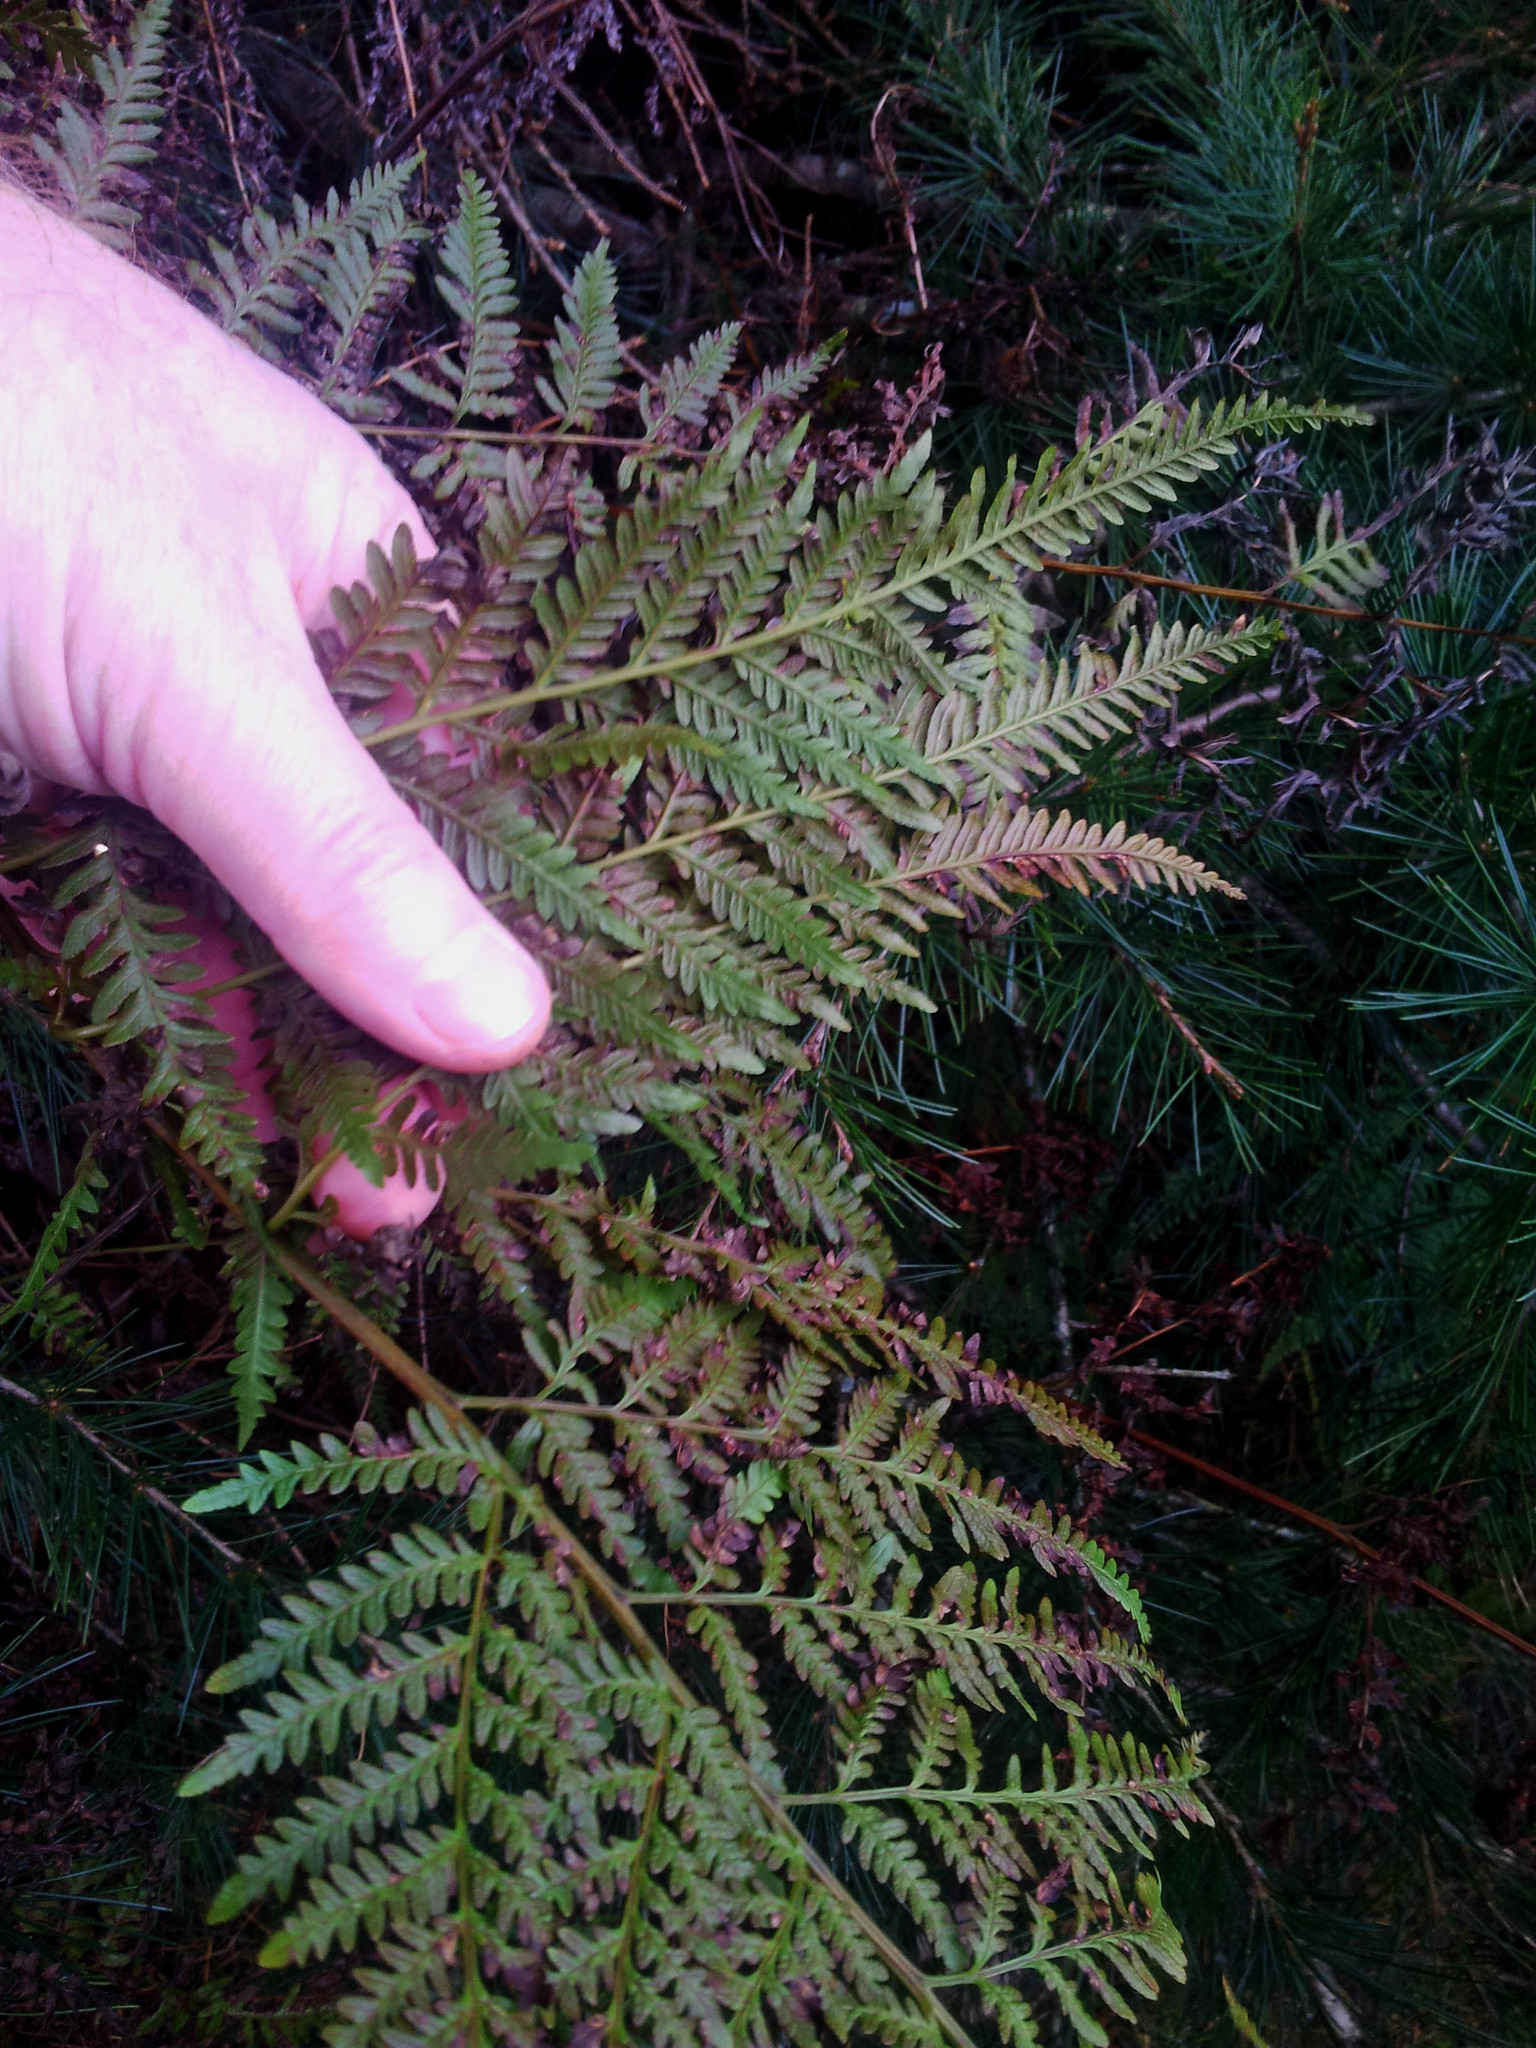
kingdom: Plantae
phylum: Tracheophyta
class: Polypodiopsida
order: Polypodiales
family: Pteridaceae
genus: Pteris
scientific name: Pteris tremula
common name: Australian brake
